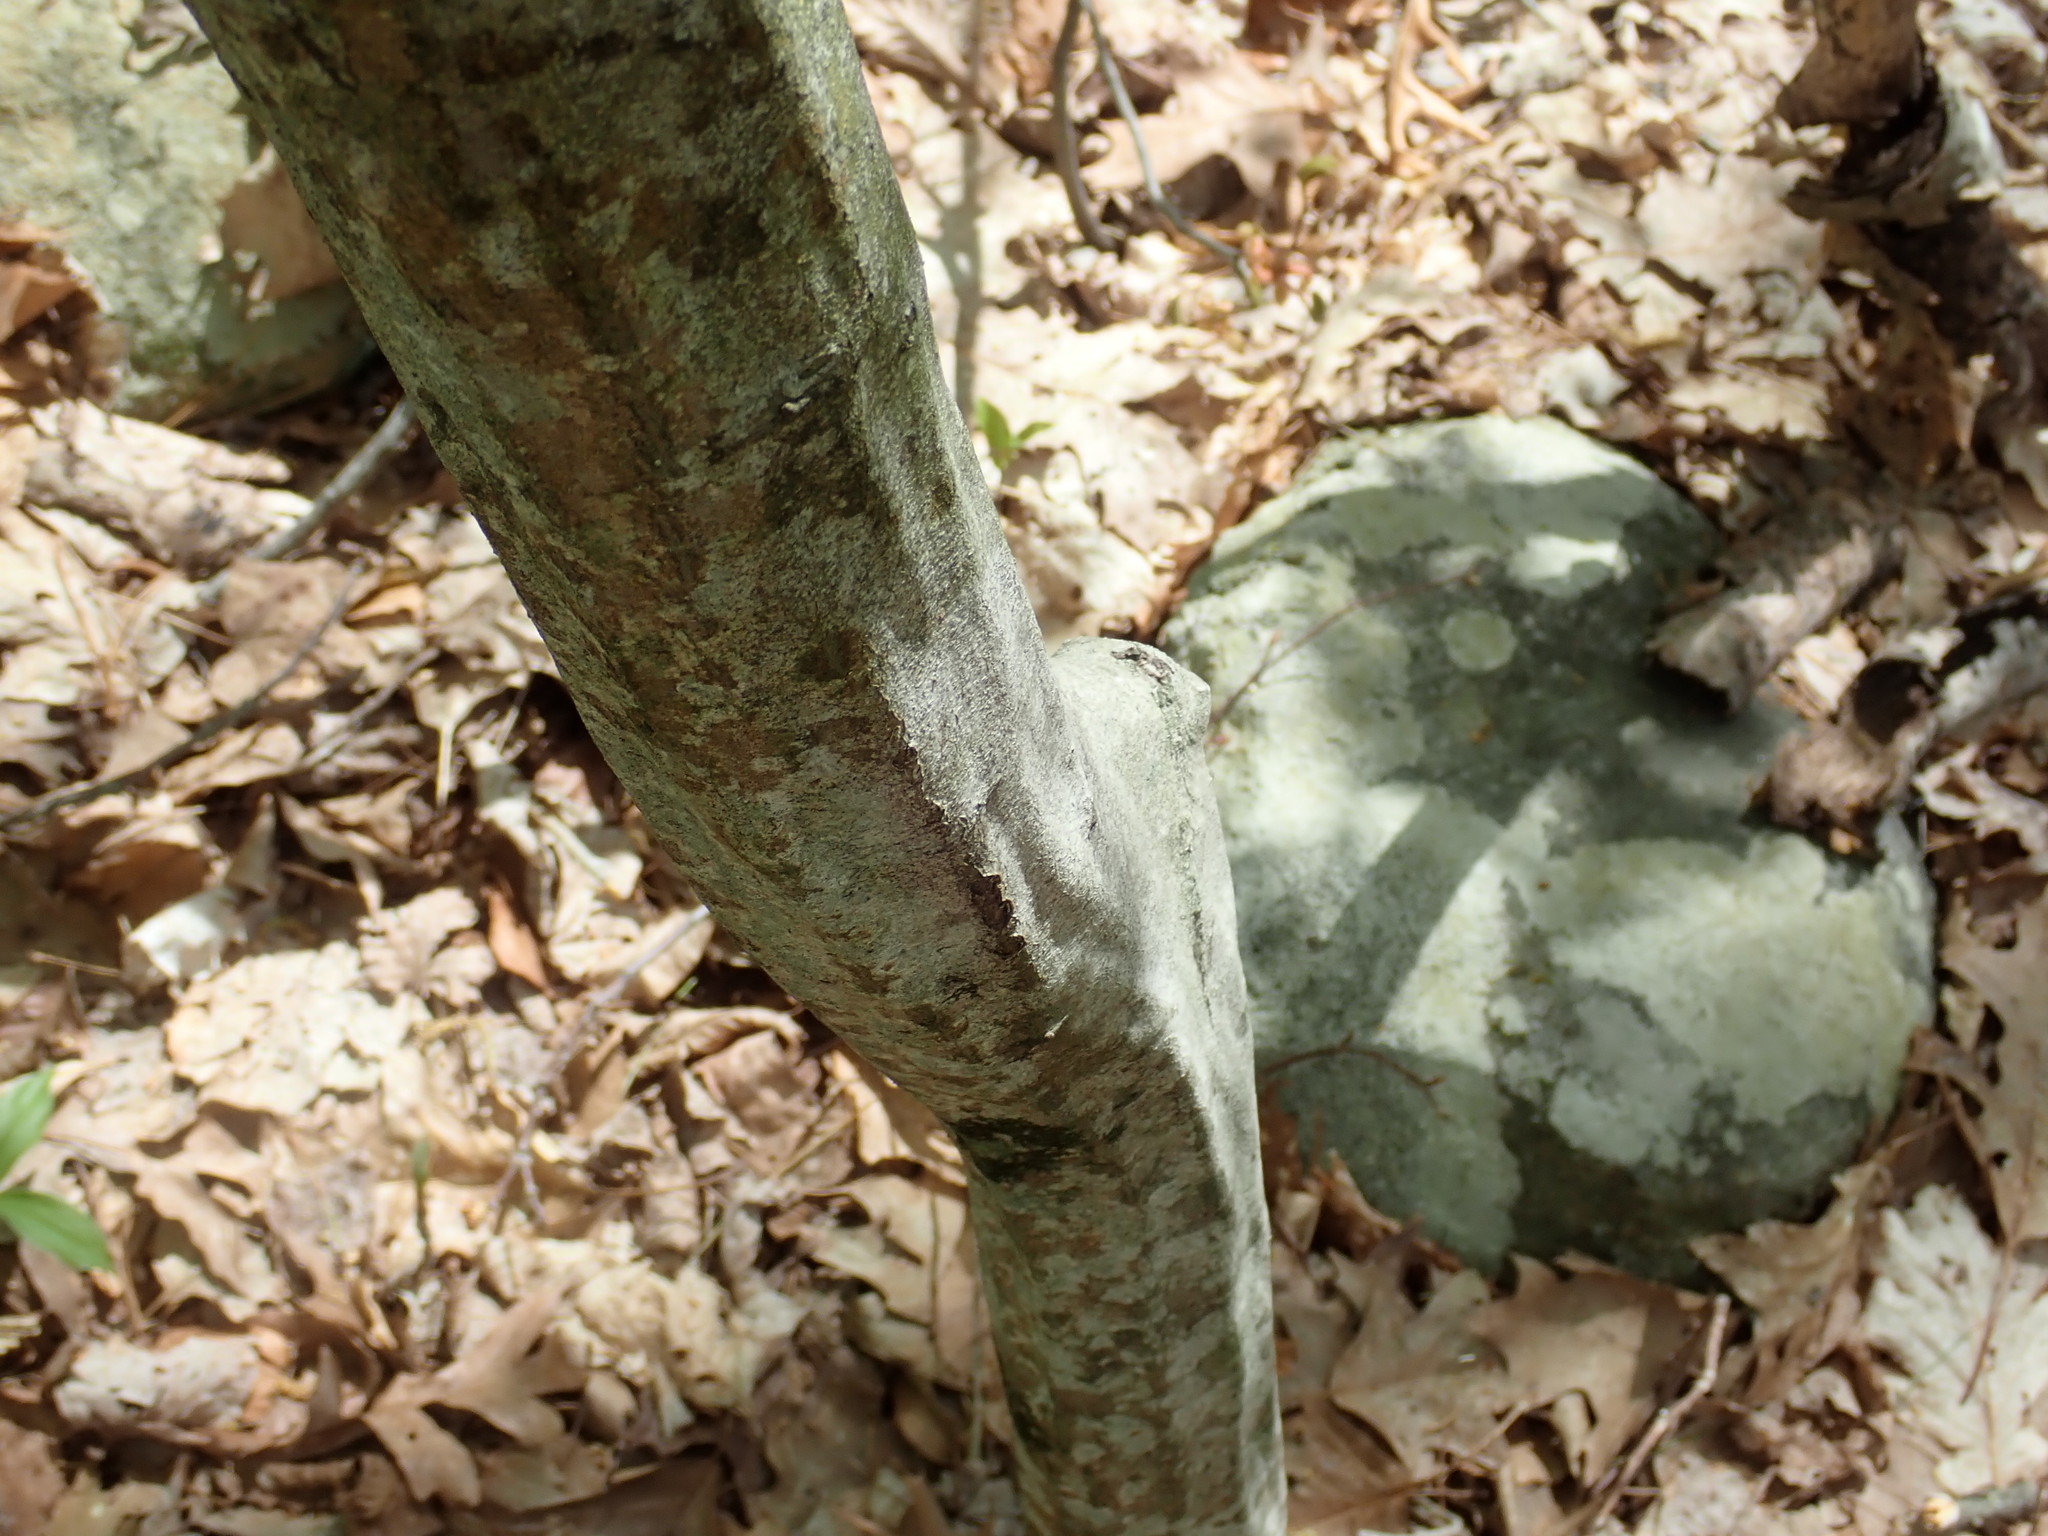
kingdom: Plantae
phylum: Tracheophyta
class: Magnoliopsida
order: Fagales
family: Betulaceae
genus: Carpinus
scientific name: Carpinus caroliniana
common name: American hornbeam
